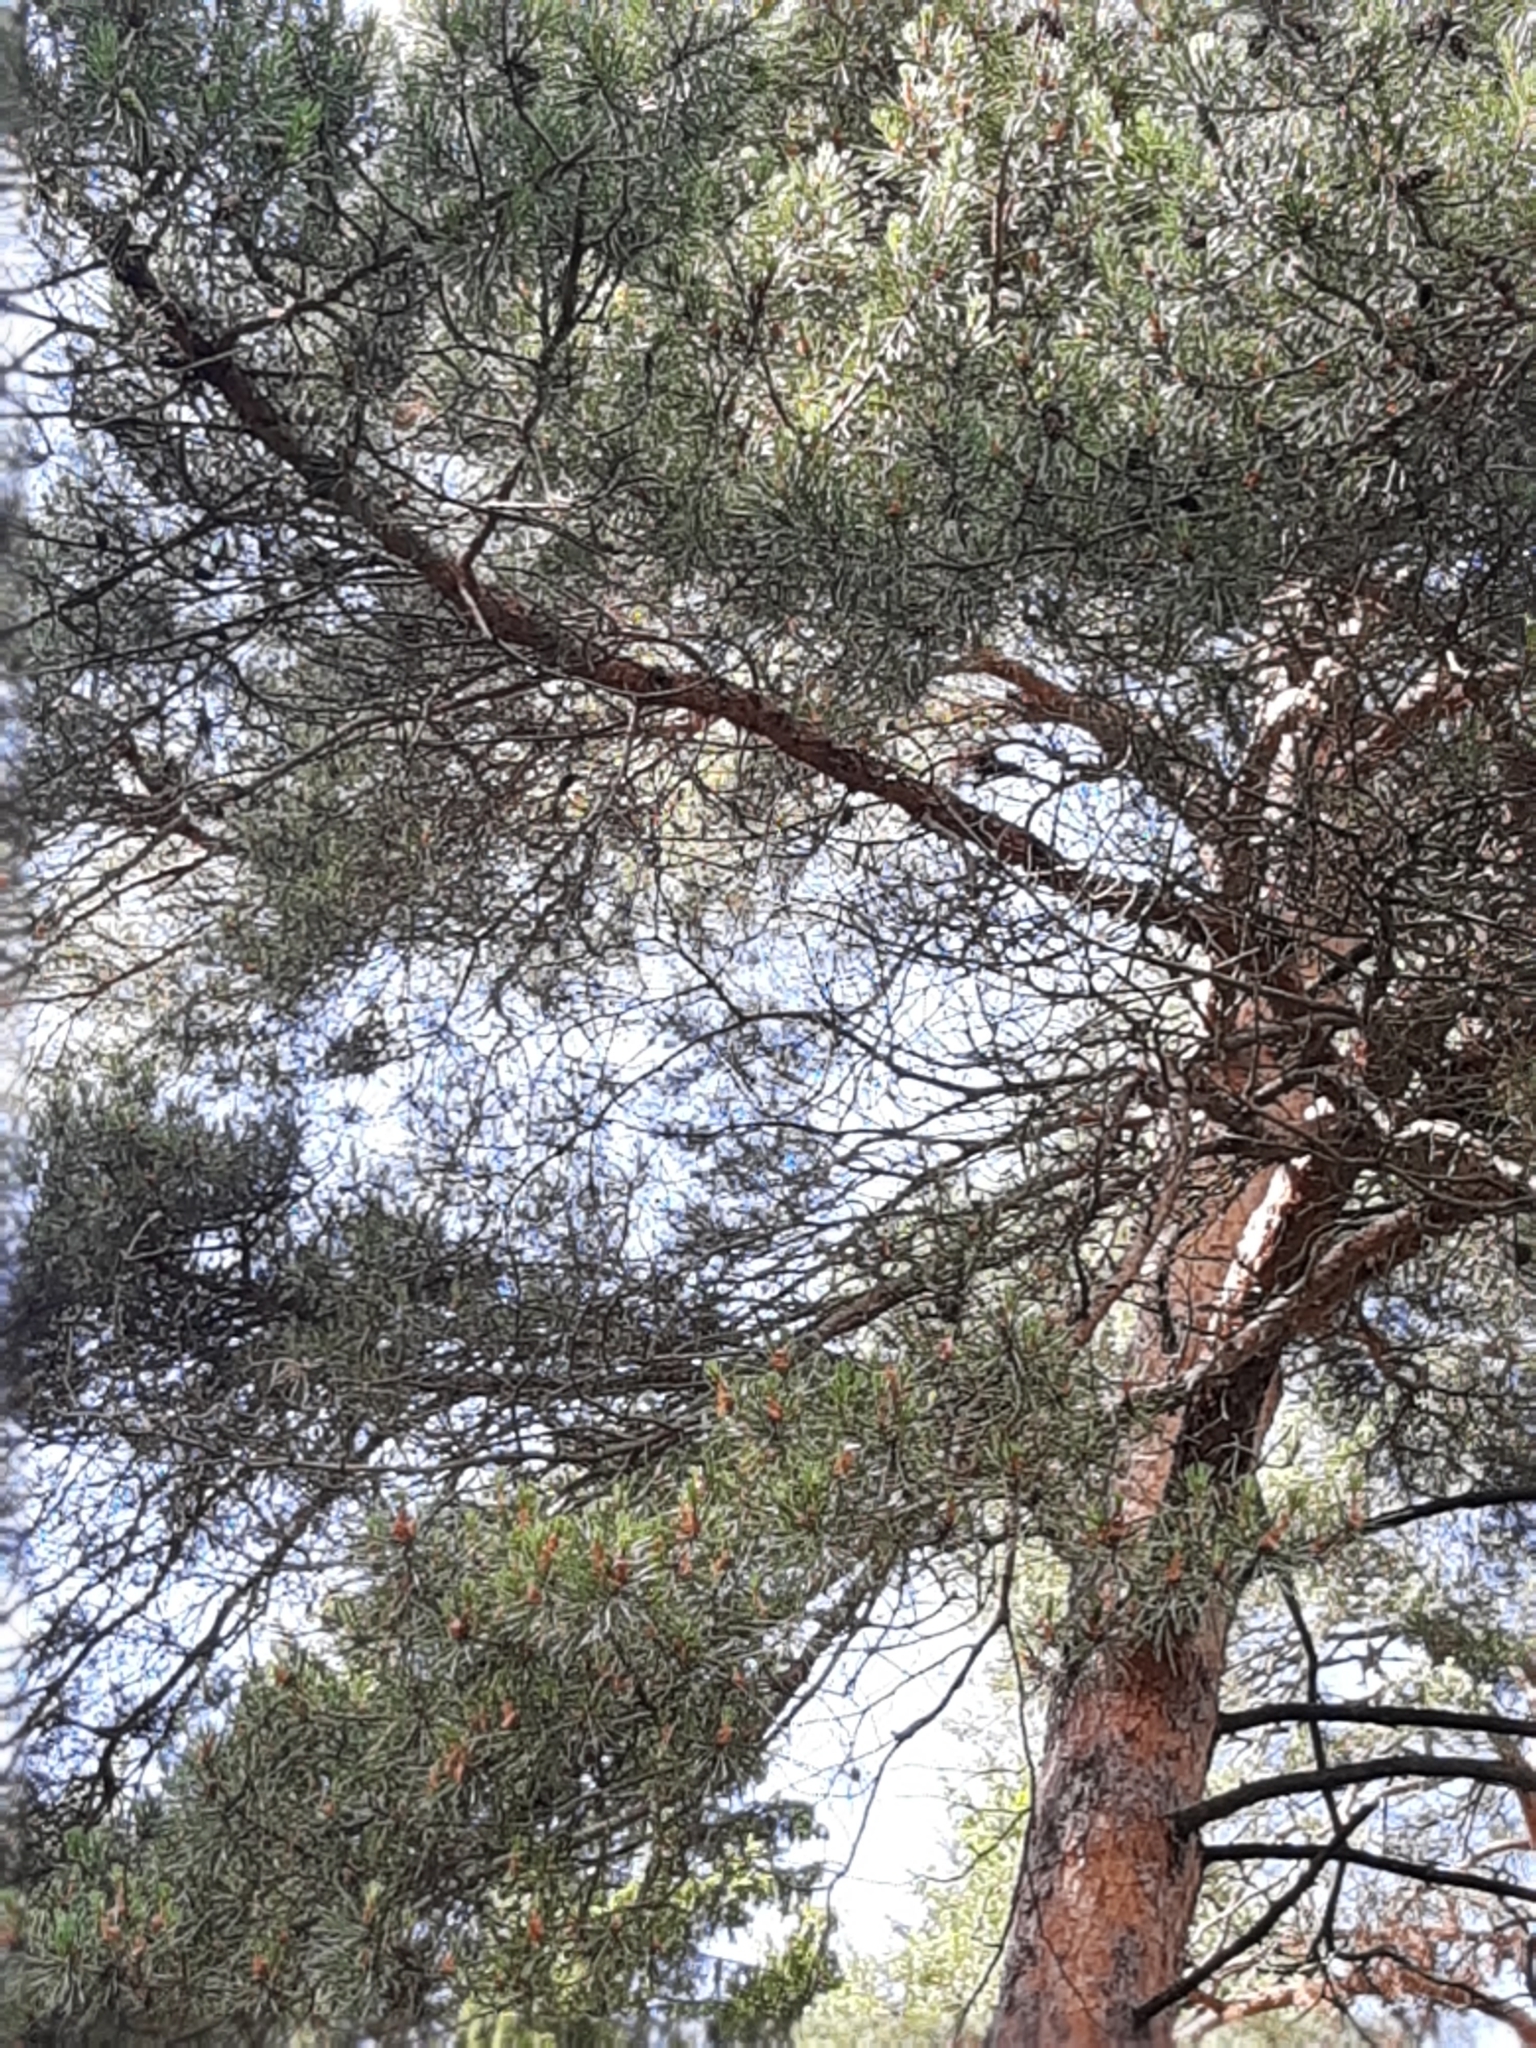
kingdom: Plantae
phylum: Tracheophyta
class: Pinopsida
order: Pinales
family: Pinaceae
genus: Pinus
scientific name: Pinus sylvestris
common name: Scots pine
